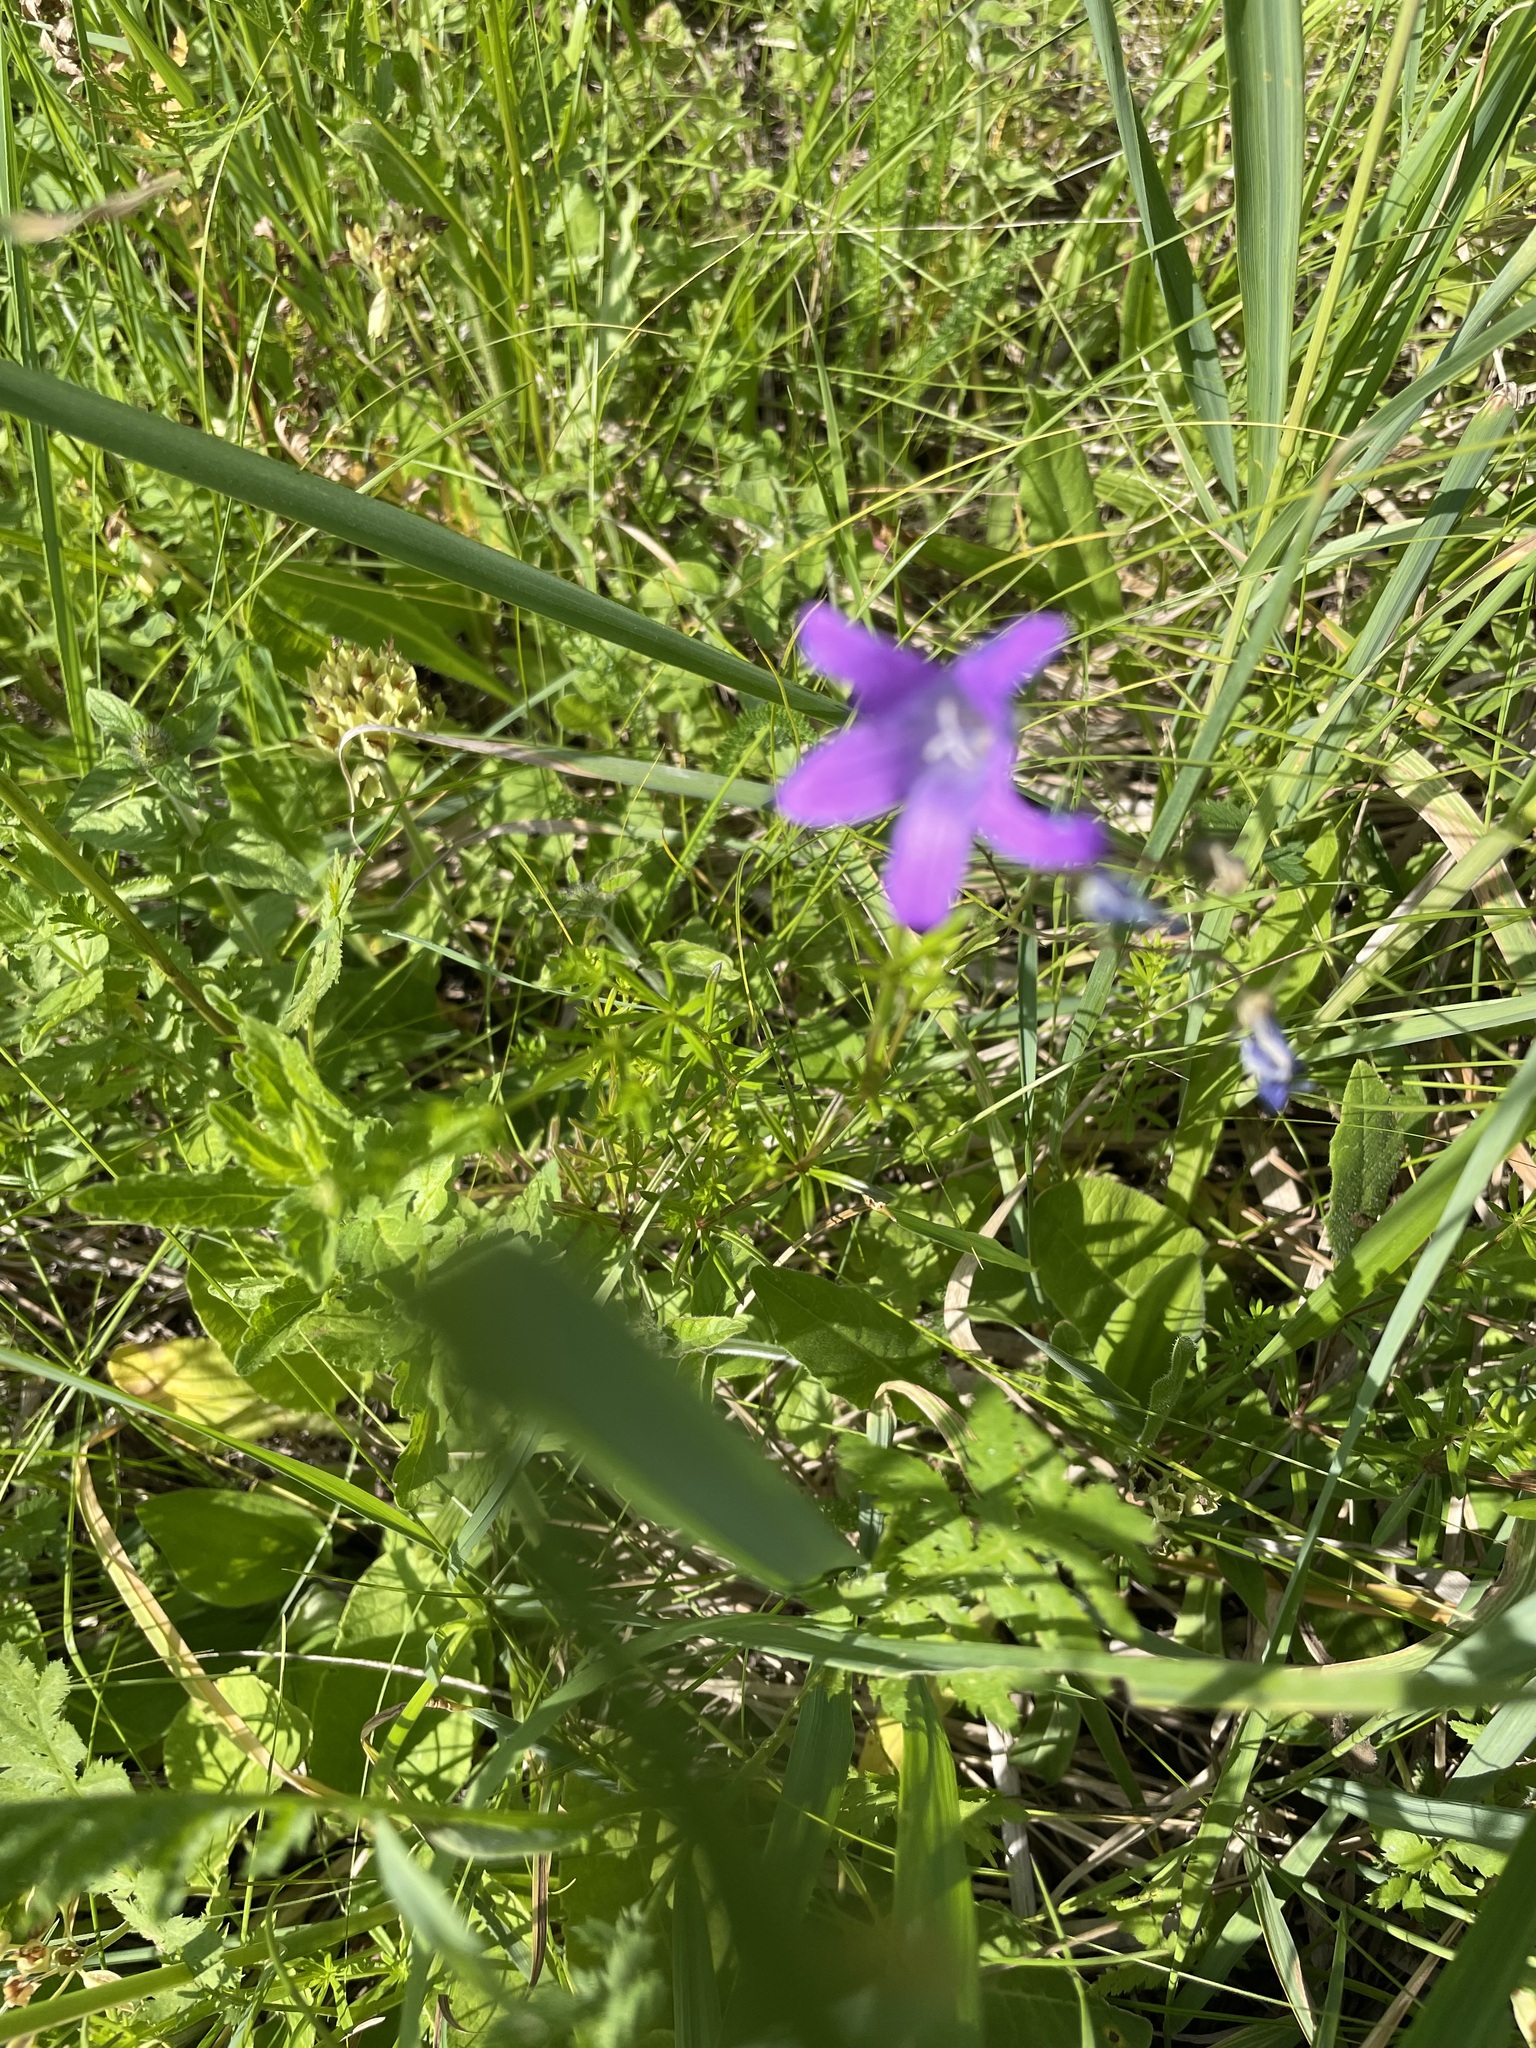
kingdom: Plantae
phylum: Tracheophyta
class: Magnoliopsida
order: Asterales
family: Campanulaceae
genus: Campanula
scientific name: Campanula patula
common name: Spreading bellflower
